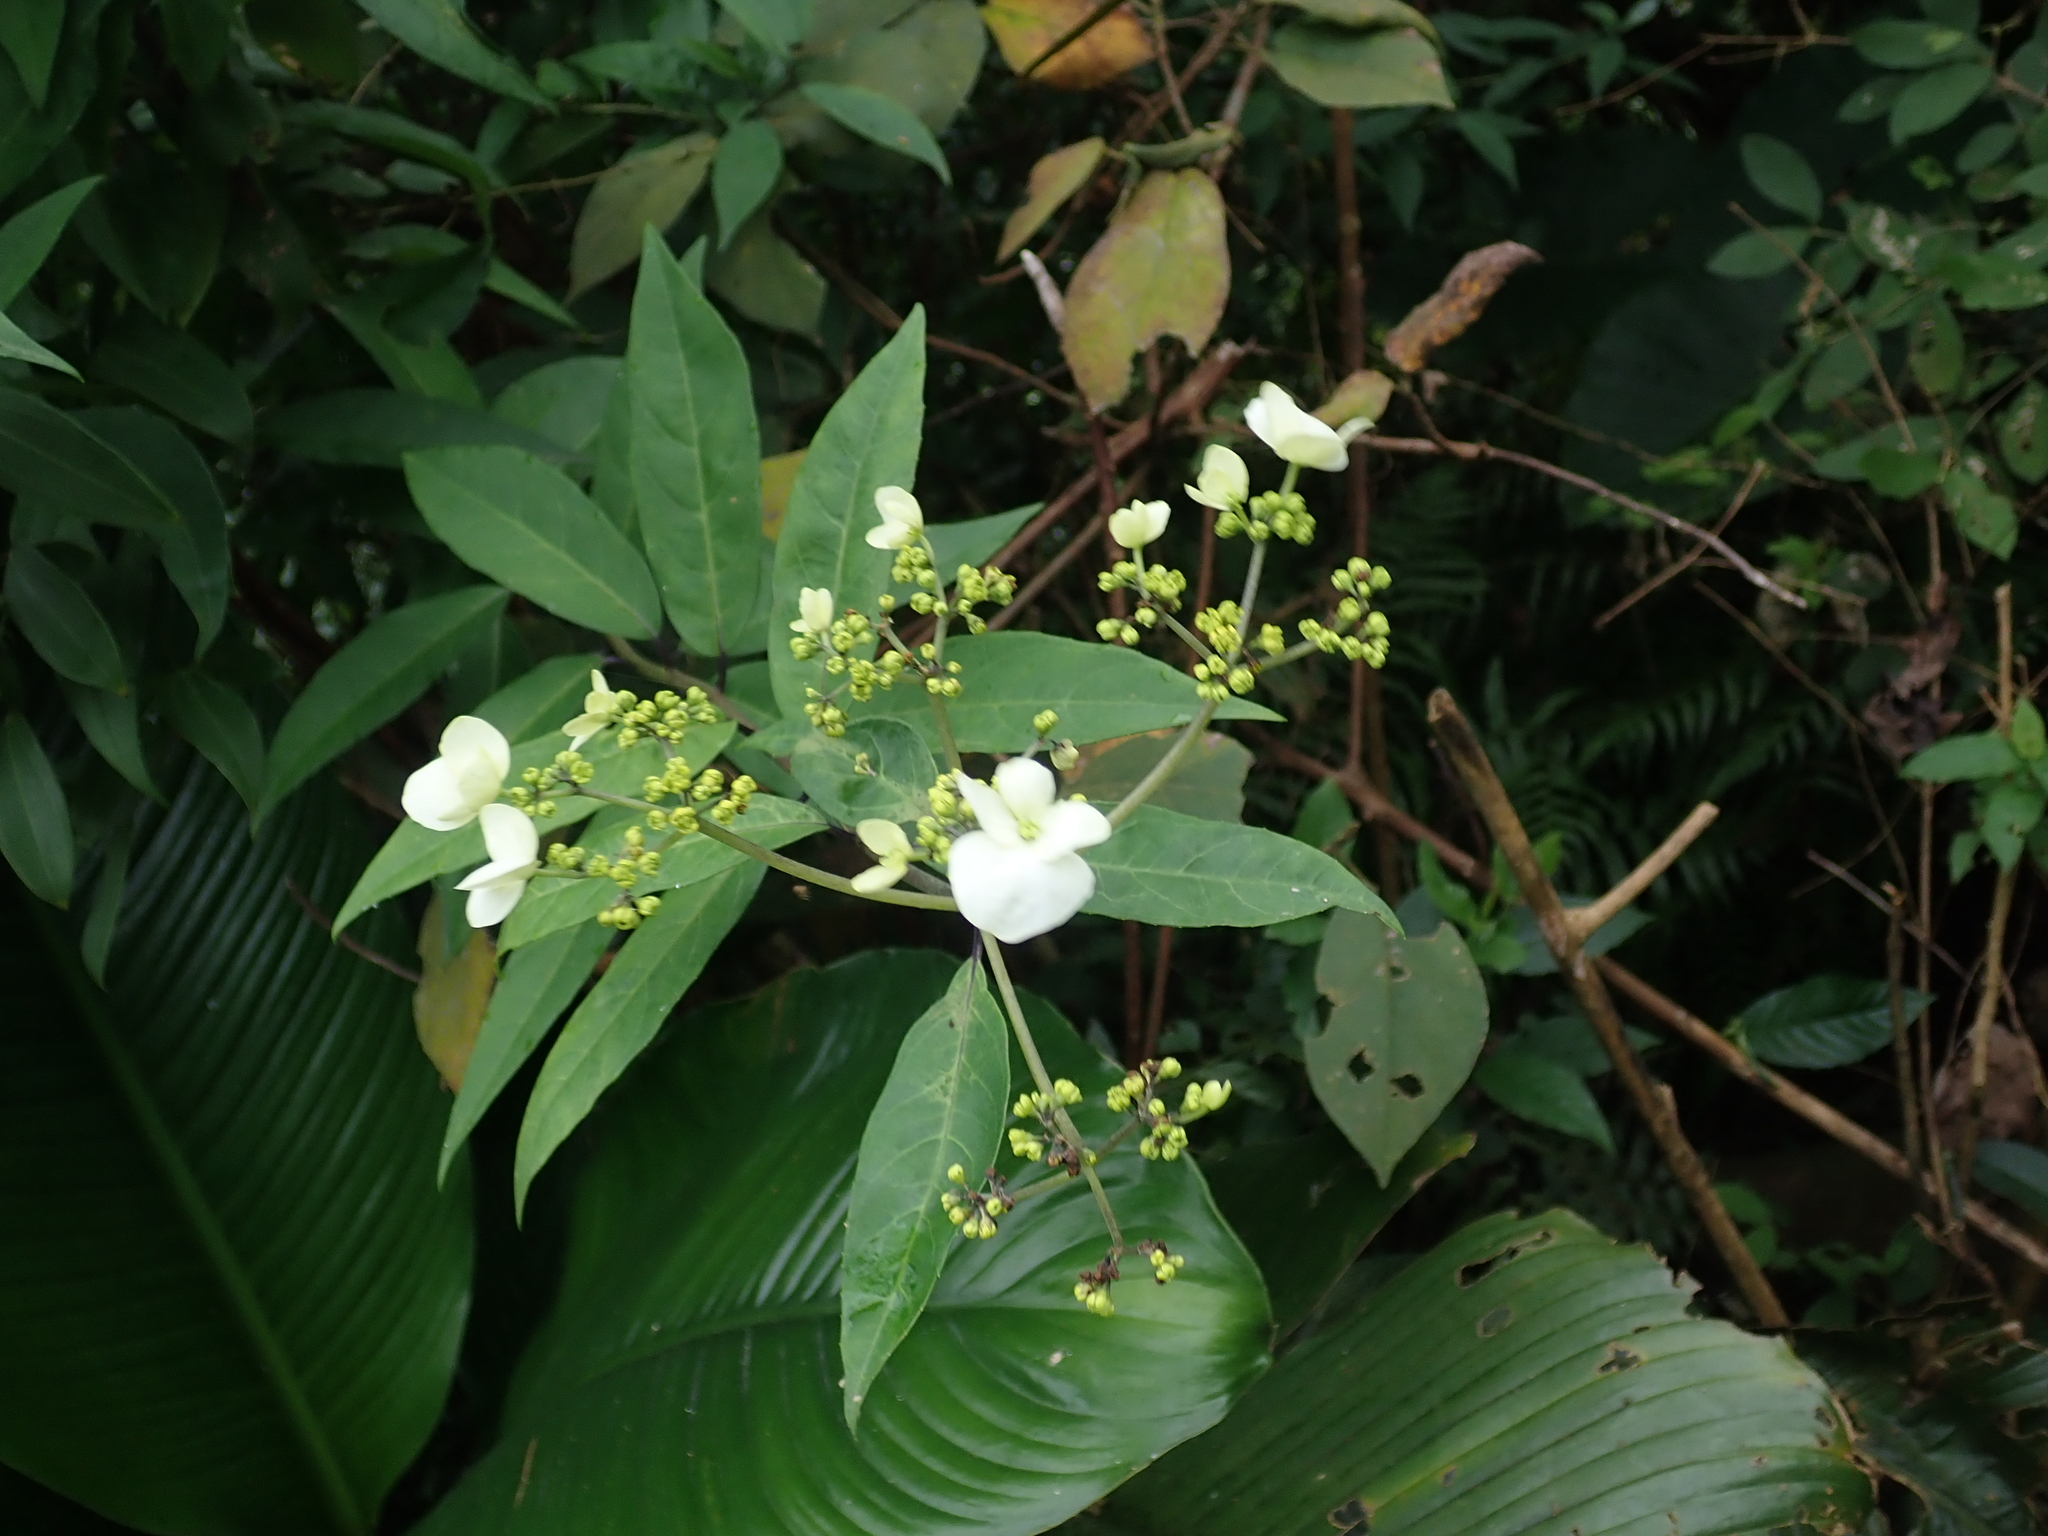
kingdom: Plantae
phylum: Tracheophyta
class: Magnoliopsida
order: Cornales
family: Hydrangeaceae
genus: Hydrangea
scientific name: Hydrangea chinensis
